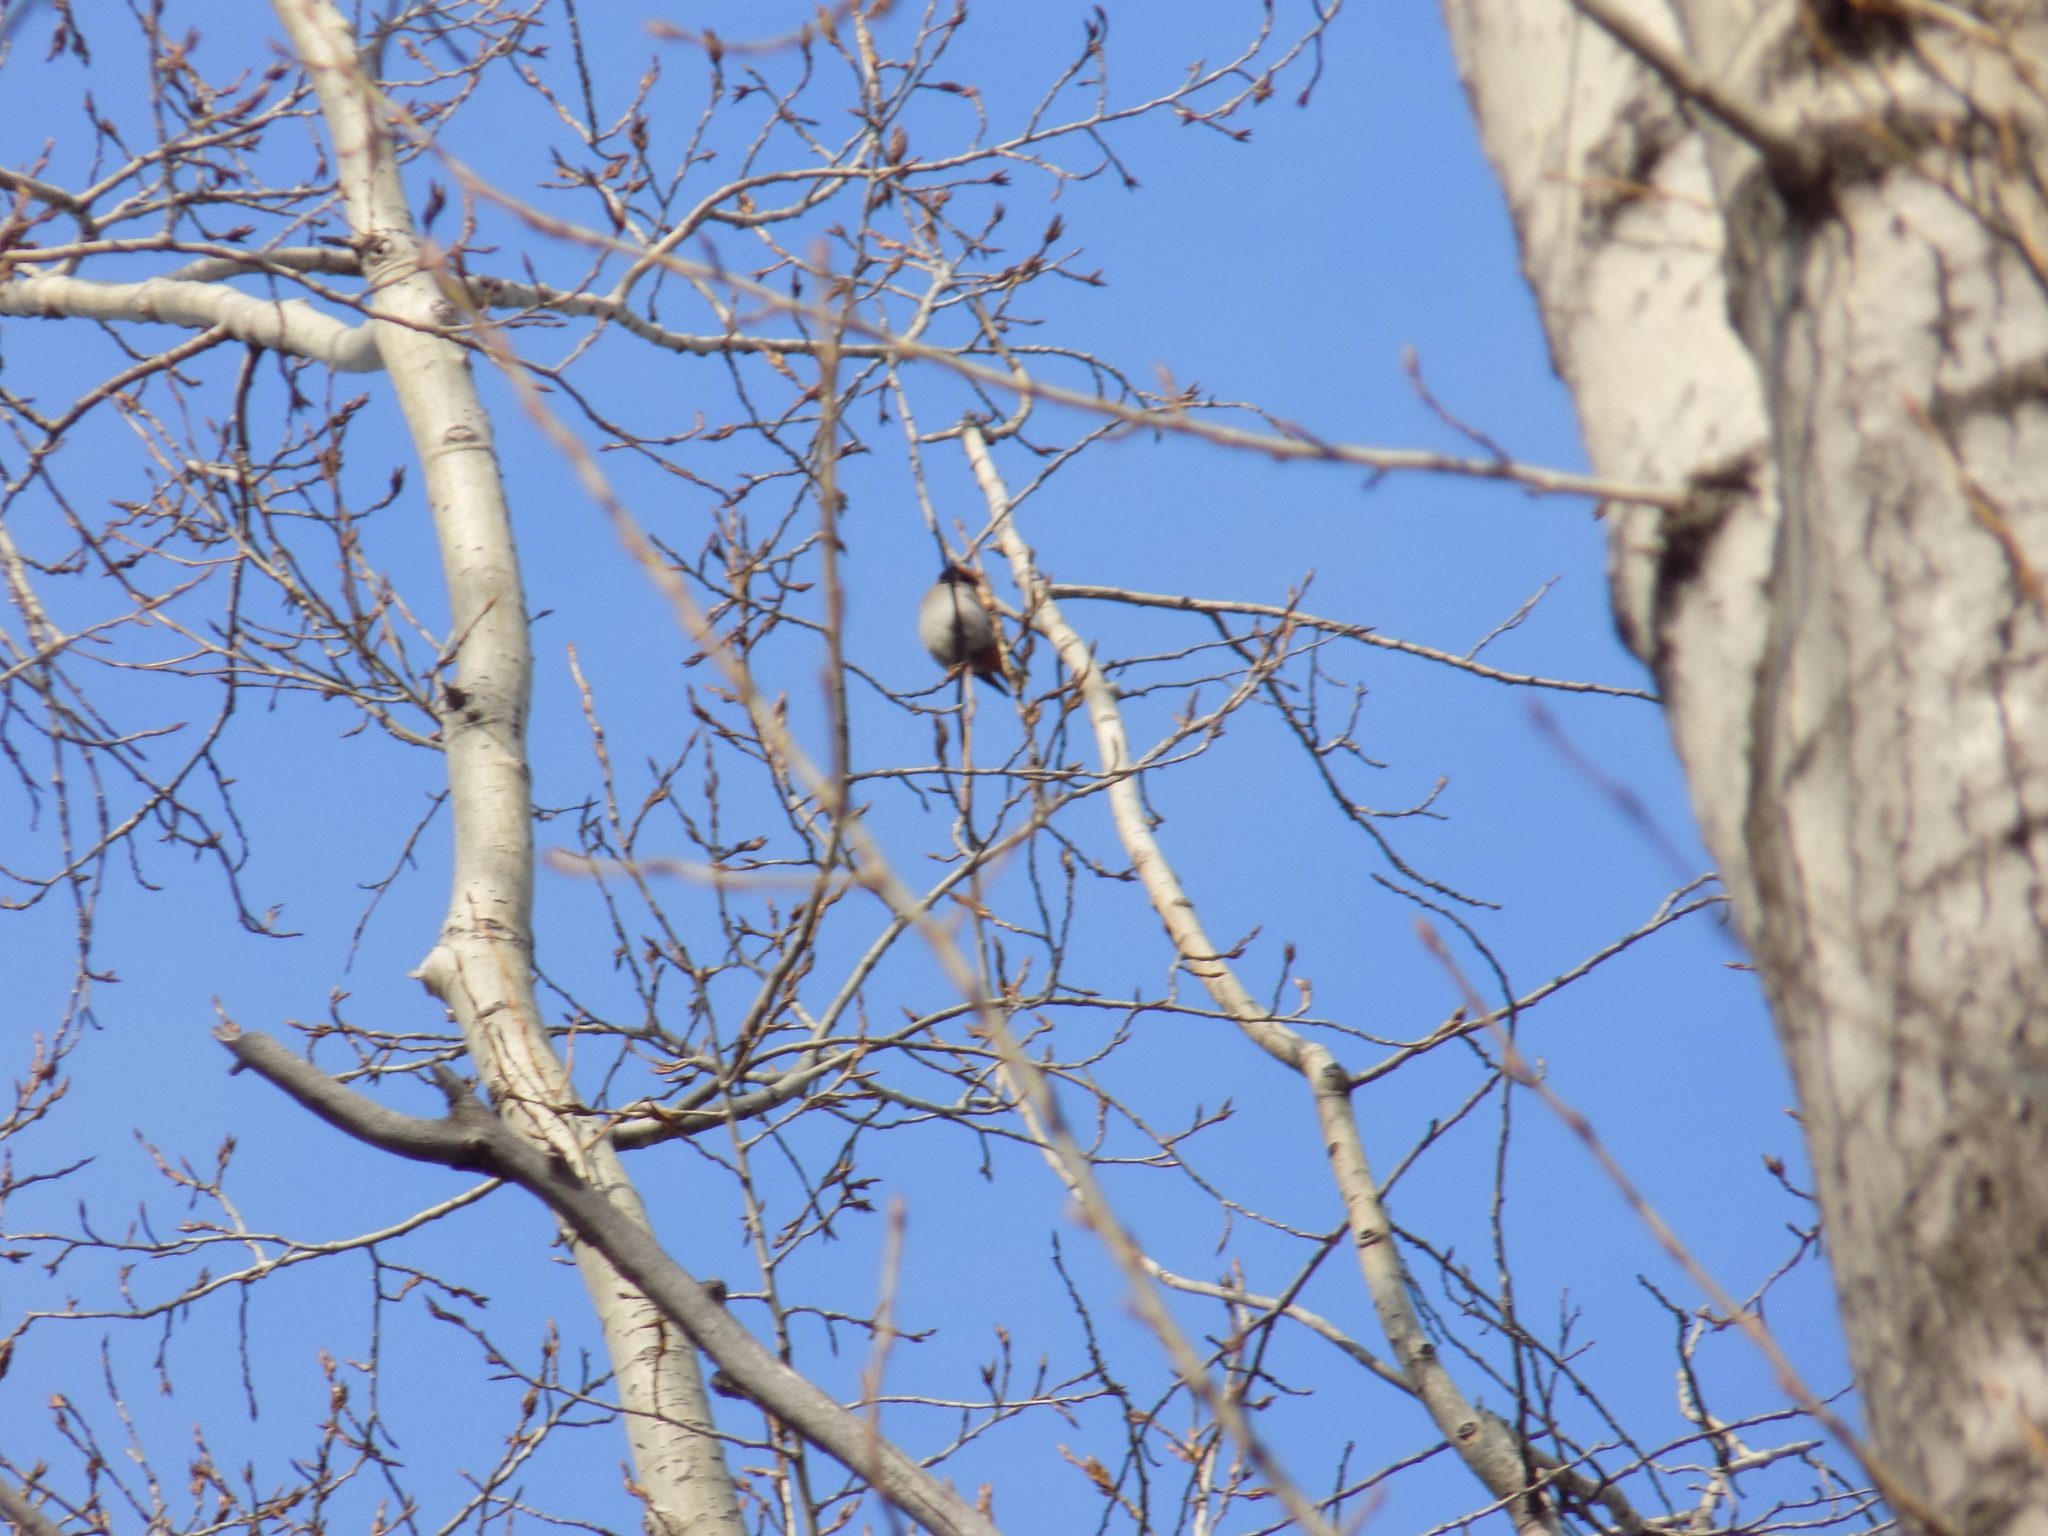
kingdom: Animalia
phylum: Chordata
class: Aves
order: Passeriformes
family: Bombycillidae
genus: Bombycilla
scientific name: Bombycilla garrulus
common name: Bohemian waxwing
